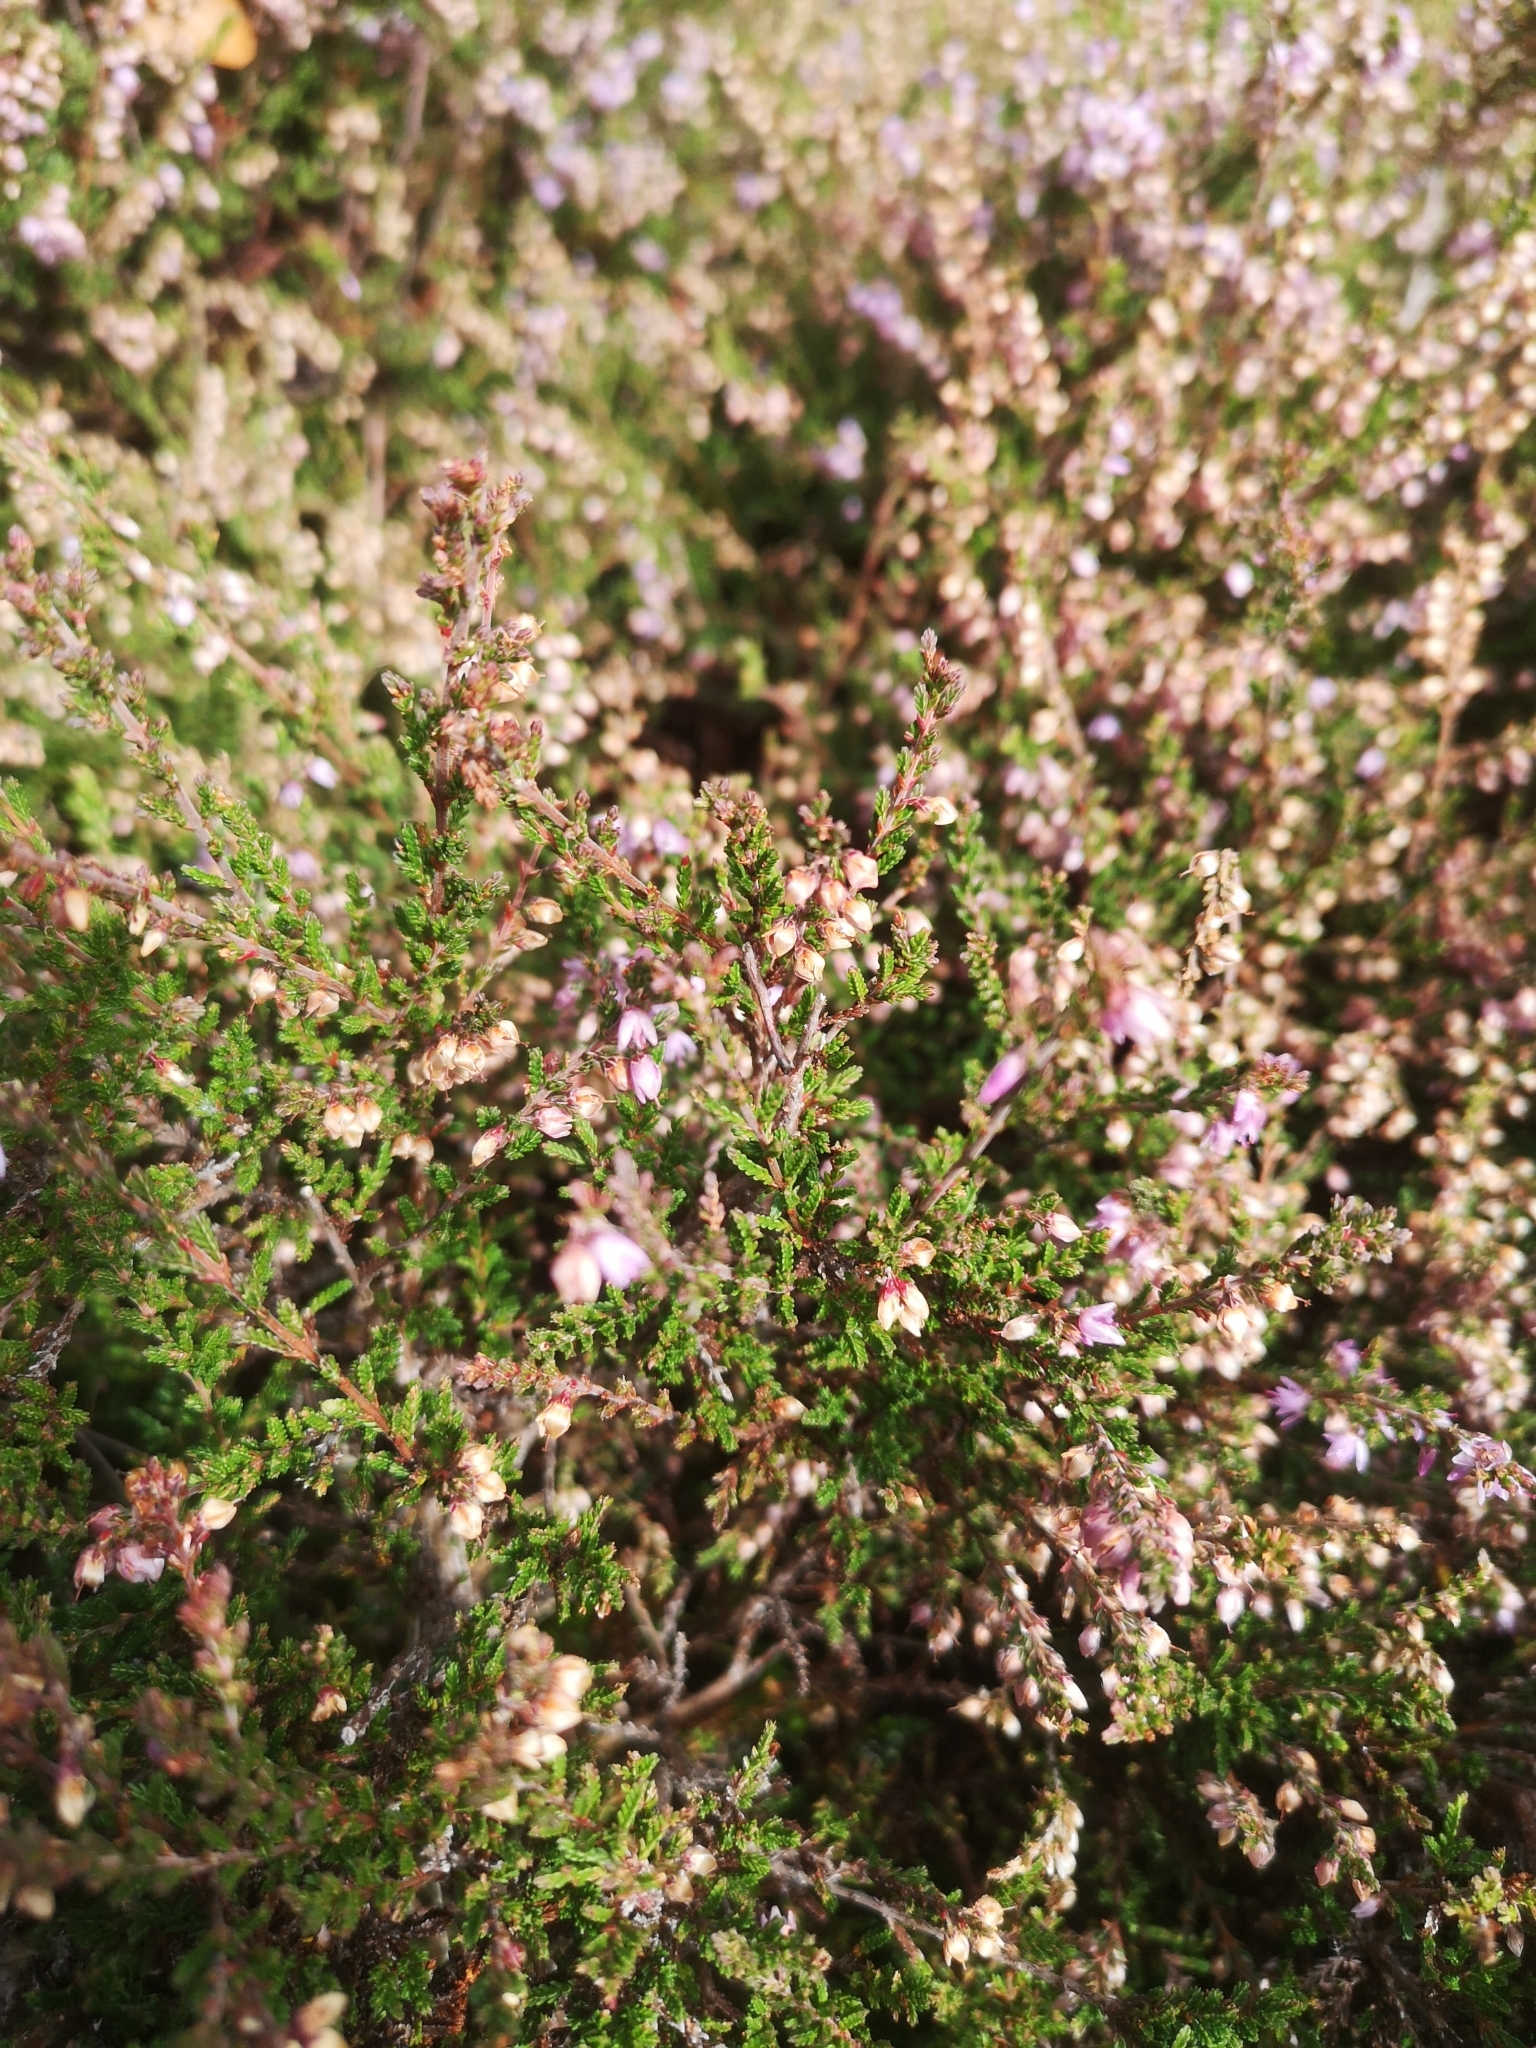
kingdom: Plantae
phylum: Tracheophyta
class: Magnoliopsida
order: Ericales
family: Ericaceae
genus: Calluna
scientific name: Calluna vulgaris
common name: Heather
